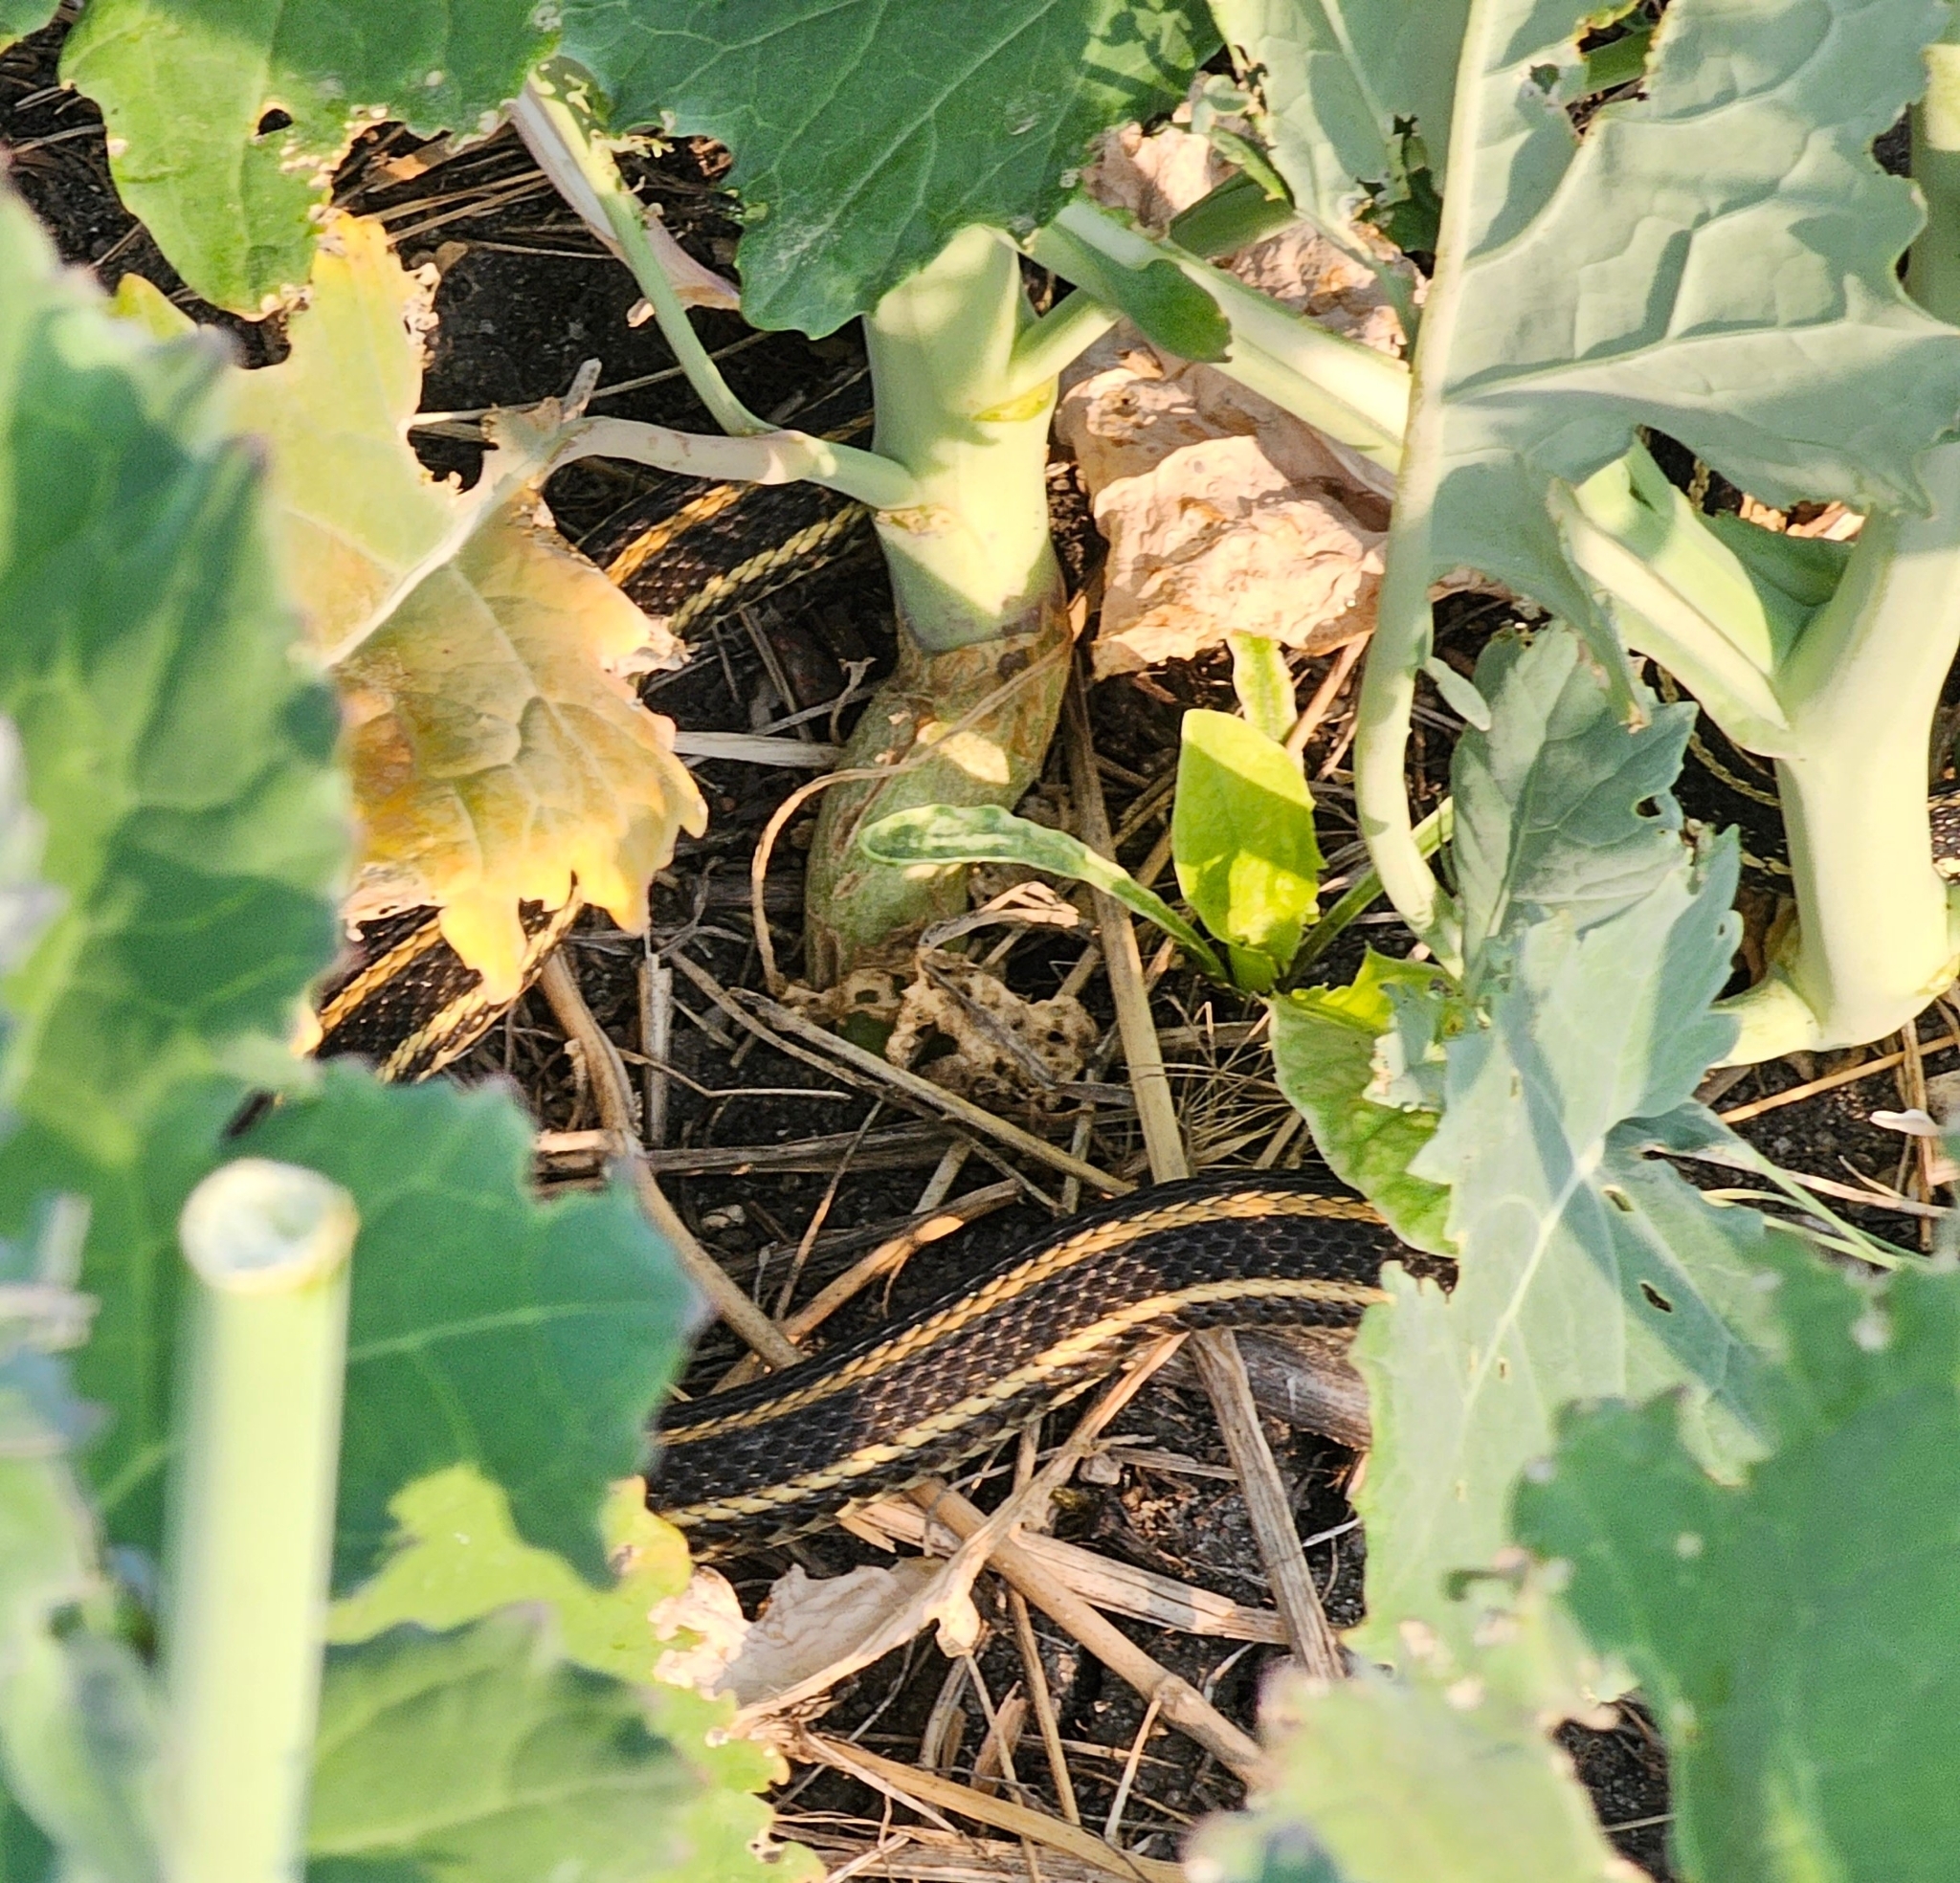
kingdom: Animalia
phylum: Chordata
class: Squamata
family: Colubridae
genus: Thamnophis
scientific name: Thamnophis radix
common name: Plains garter snake
